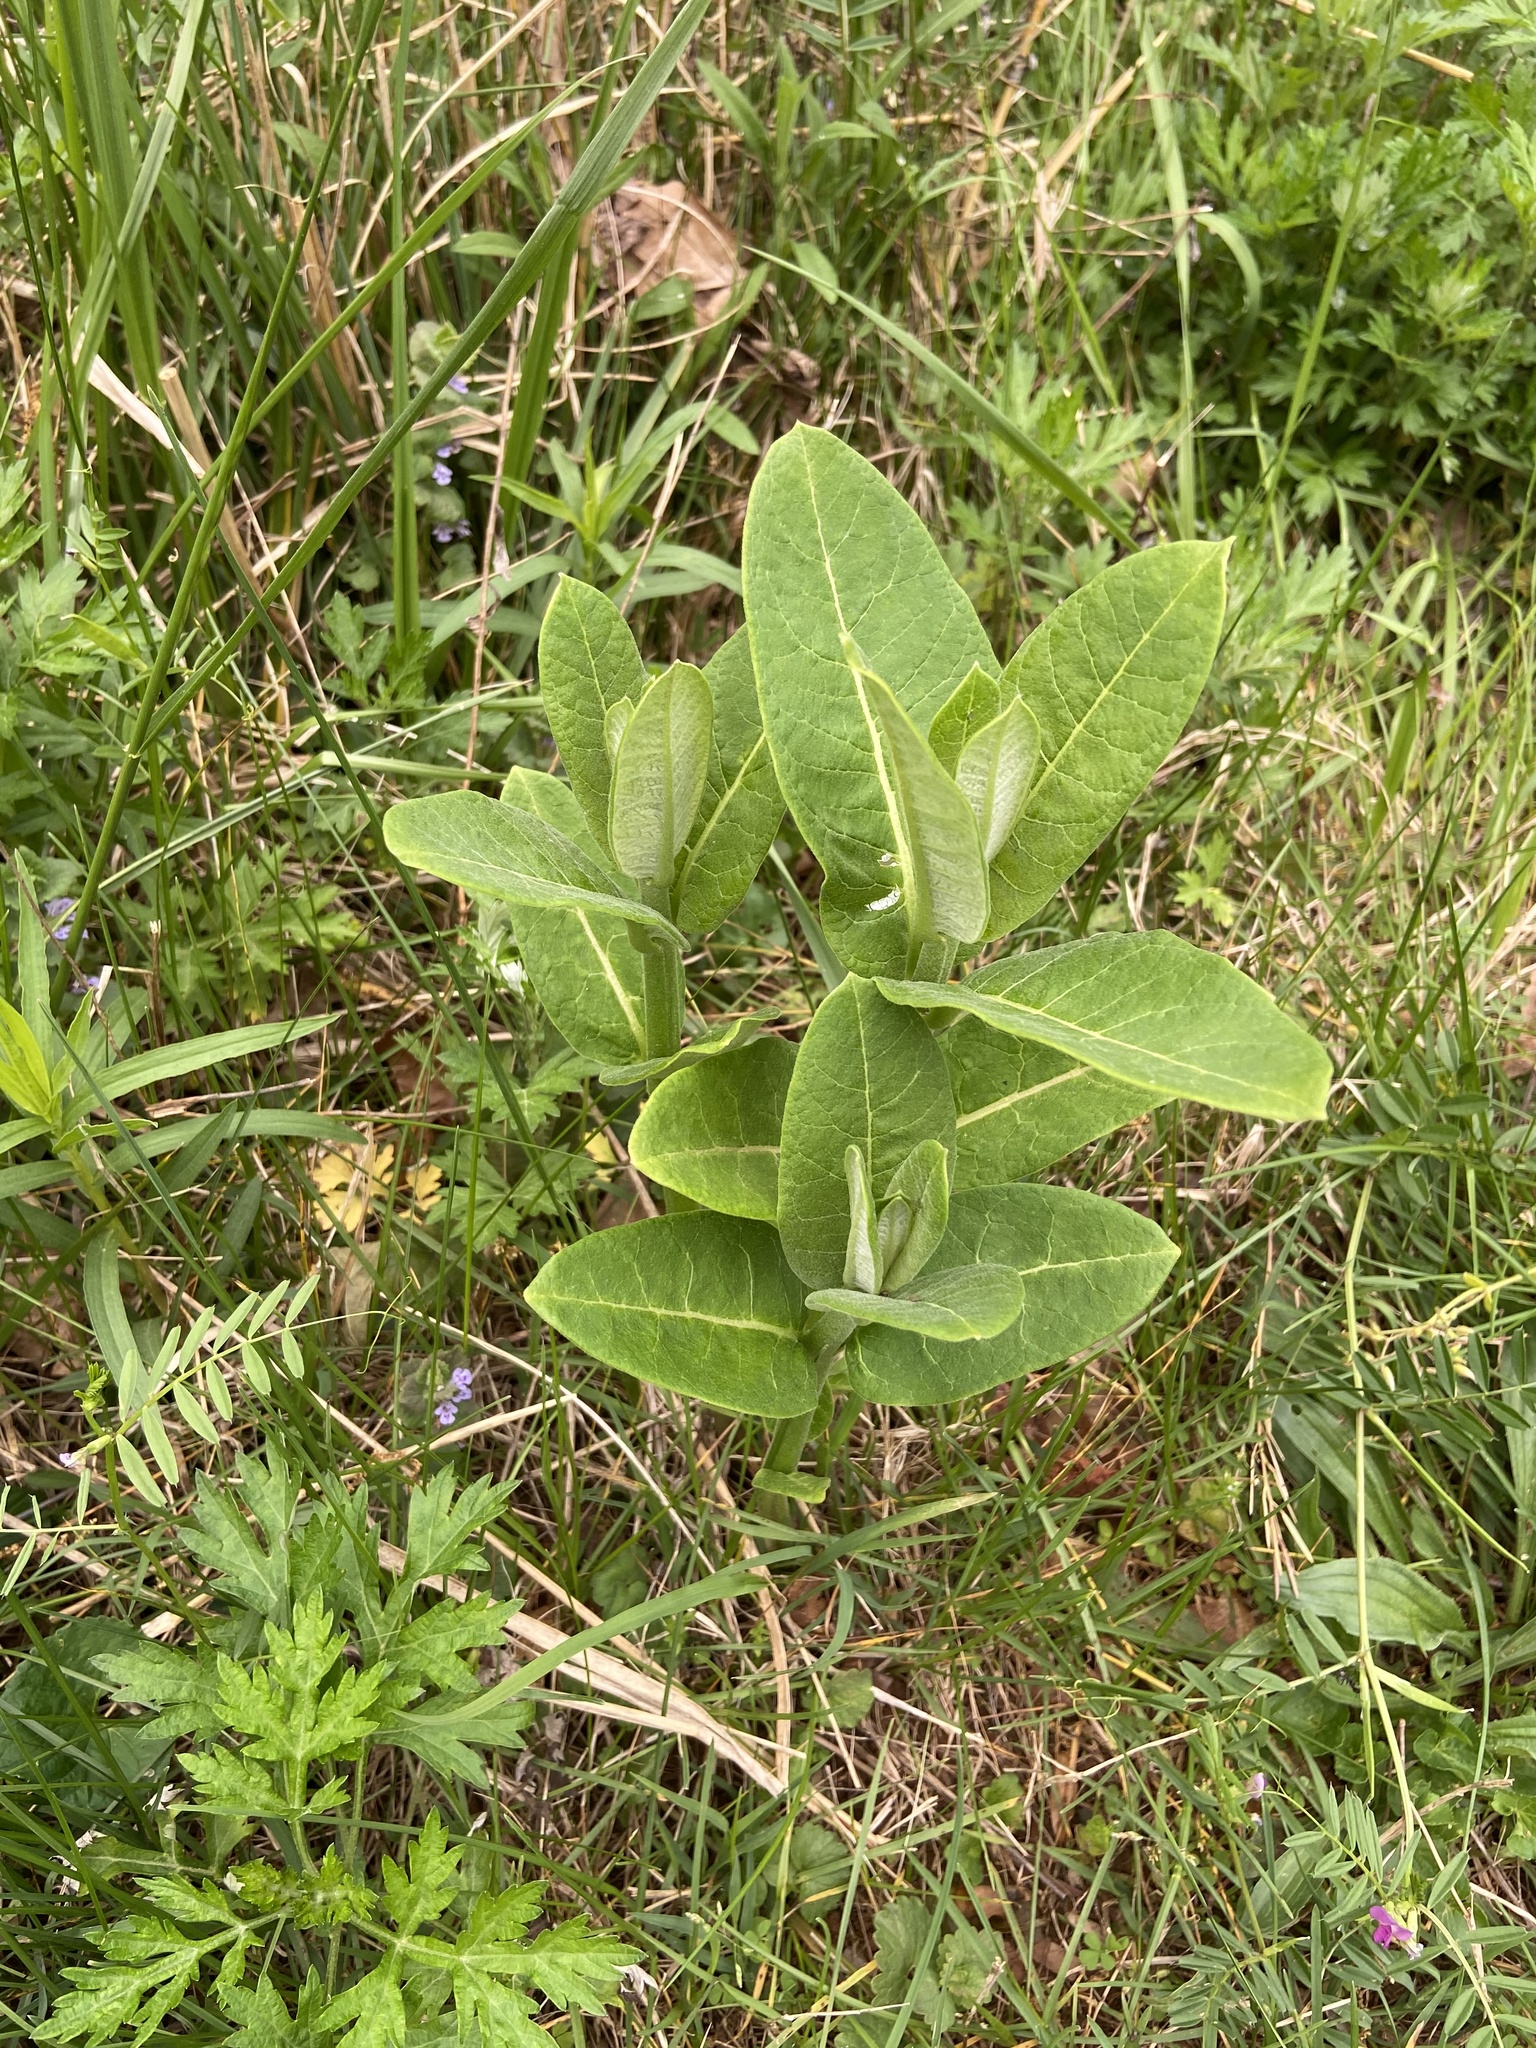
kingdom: Plantae
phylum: Tracheophyta
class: Magnoliopsida
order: Gentianales
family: Apocynaceae
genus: Asclepias
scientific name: Asclepias syriaca
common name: Common milkweed
